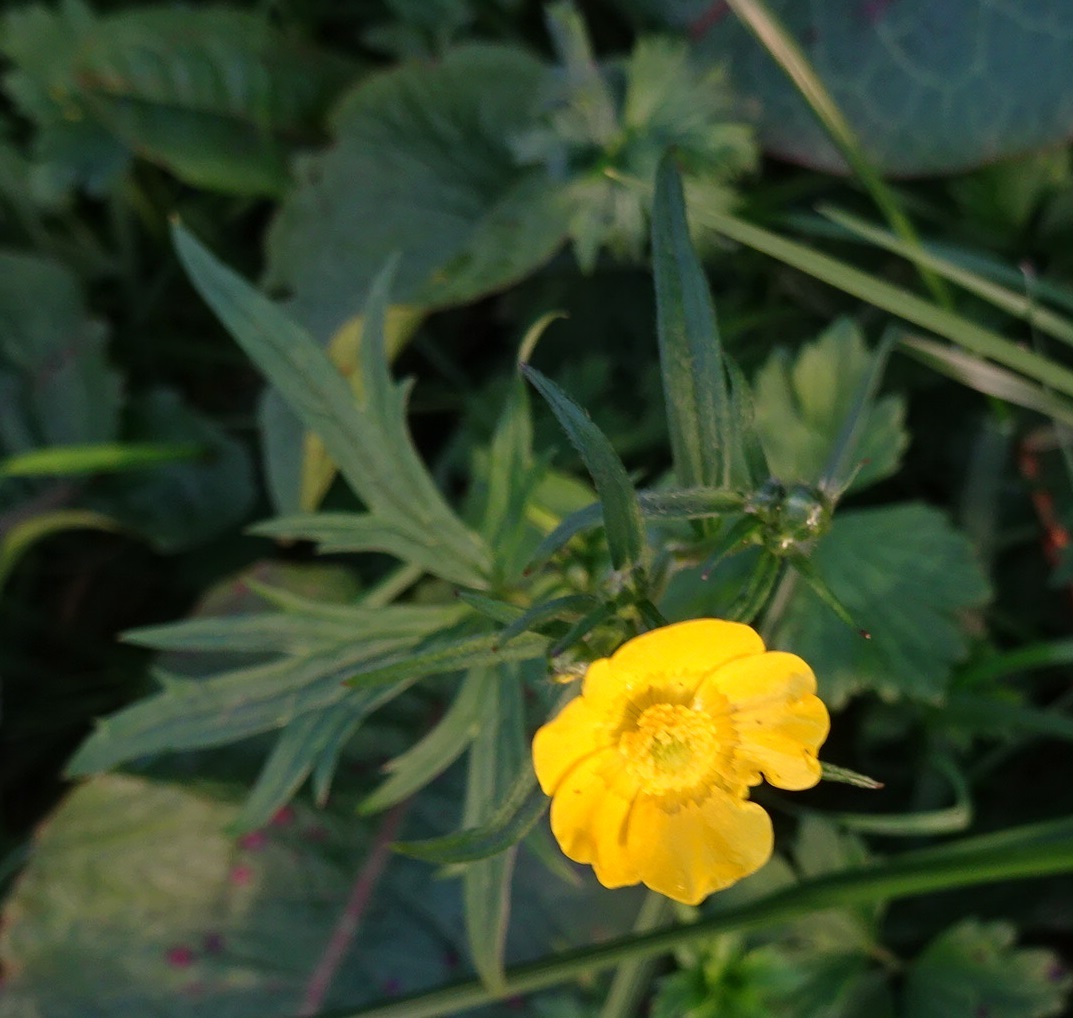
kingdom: Plantae
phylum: Tracheophyta
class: Magnoliopsida
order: Ranunculales
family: Ranunculaceae
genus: Ranunculus
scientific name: Ranunculus acris
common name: Meadow buttercup
